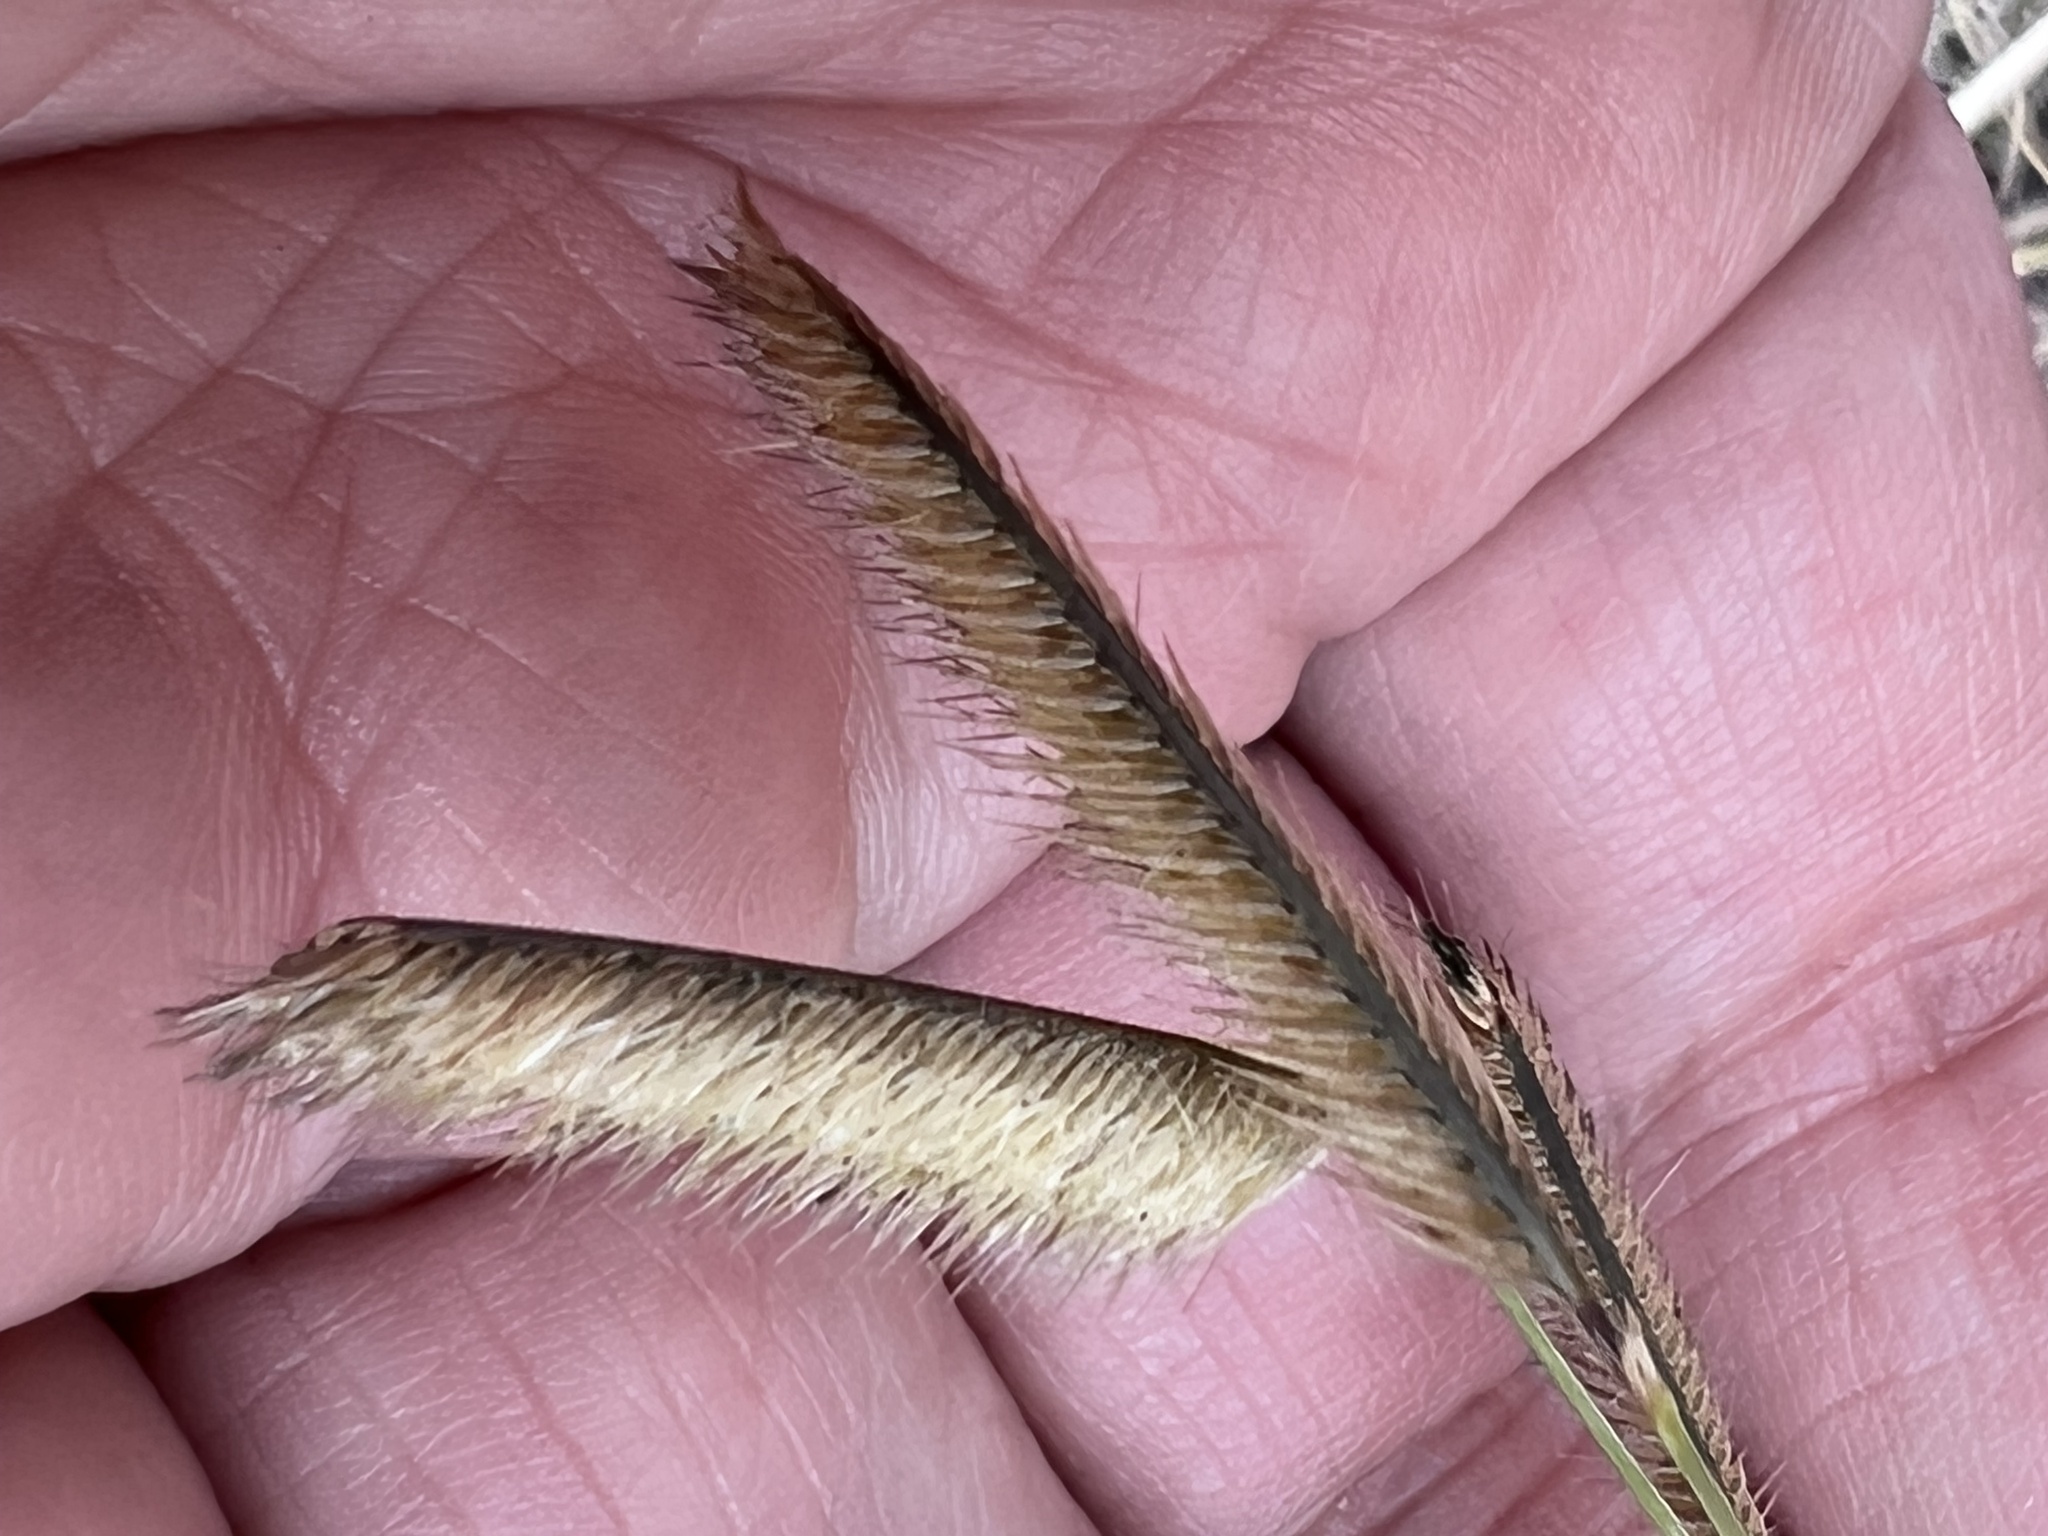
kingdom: Plantae
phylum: Tracheophyta
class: Liliopsida
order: Poales
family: Poaceae
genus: Bouteloua
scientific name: Bouteloua gracilis
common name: Blue grama
